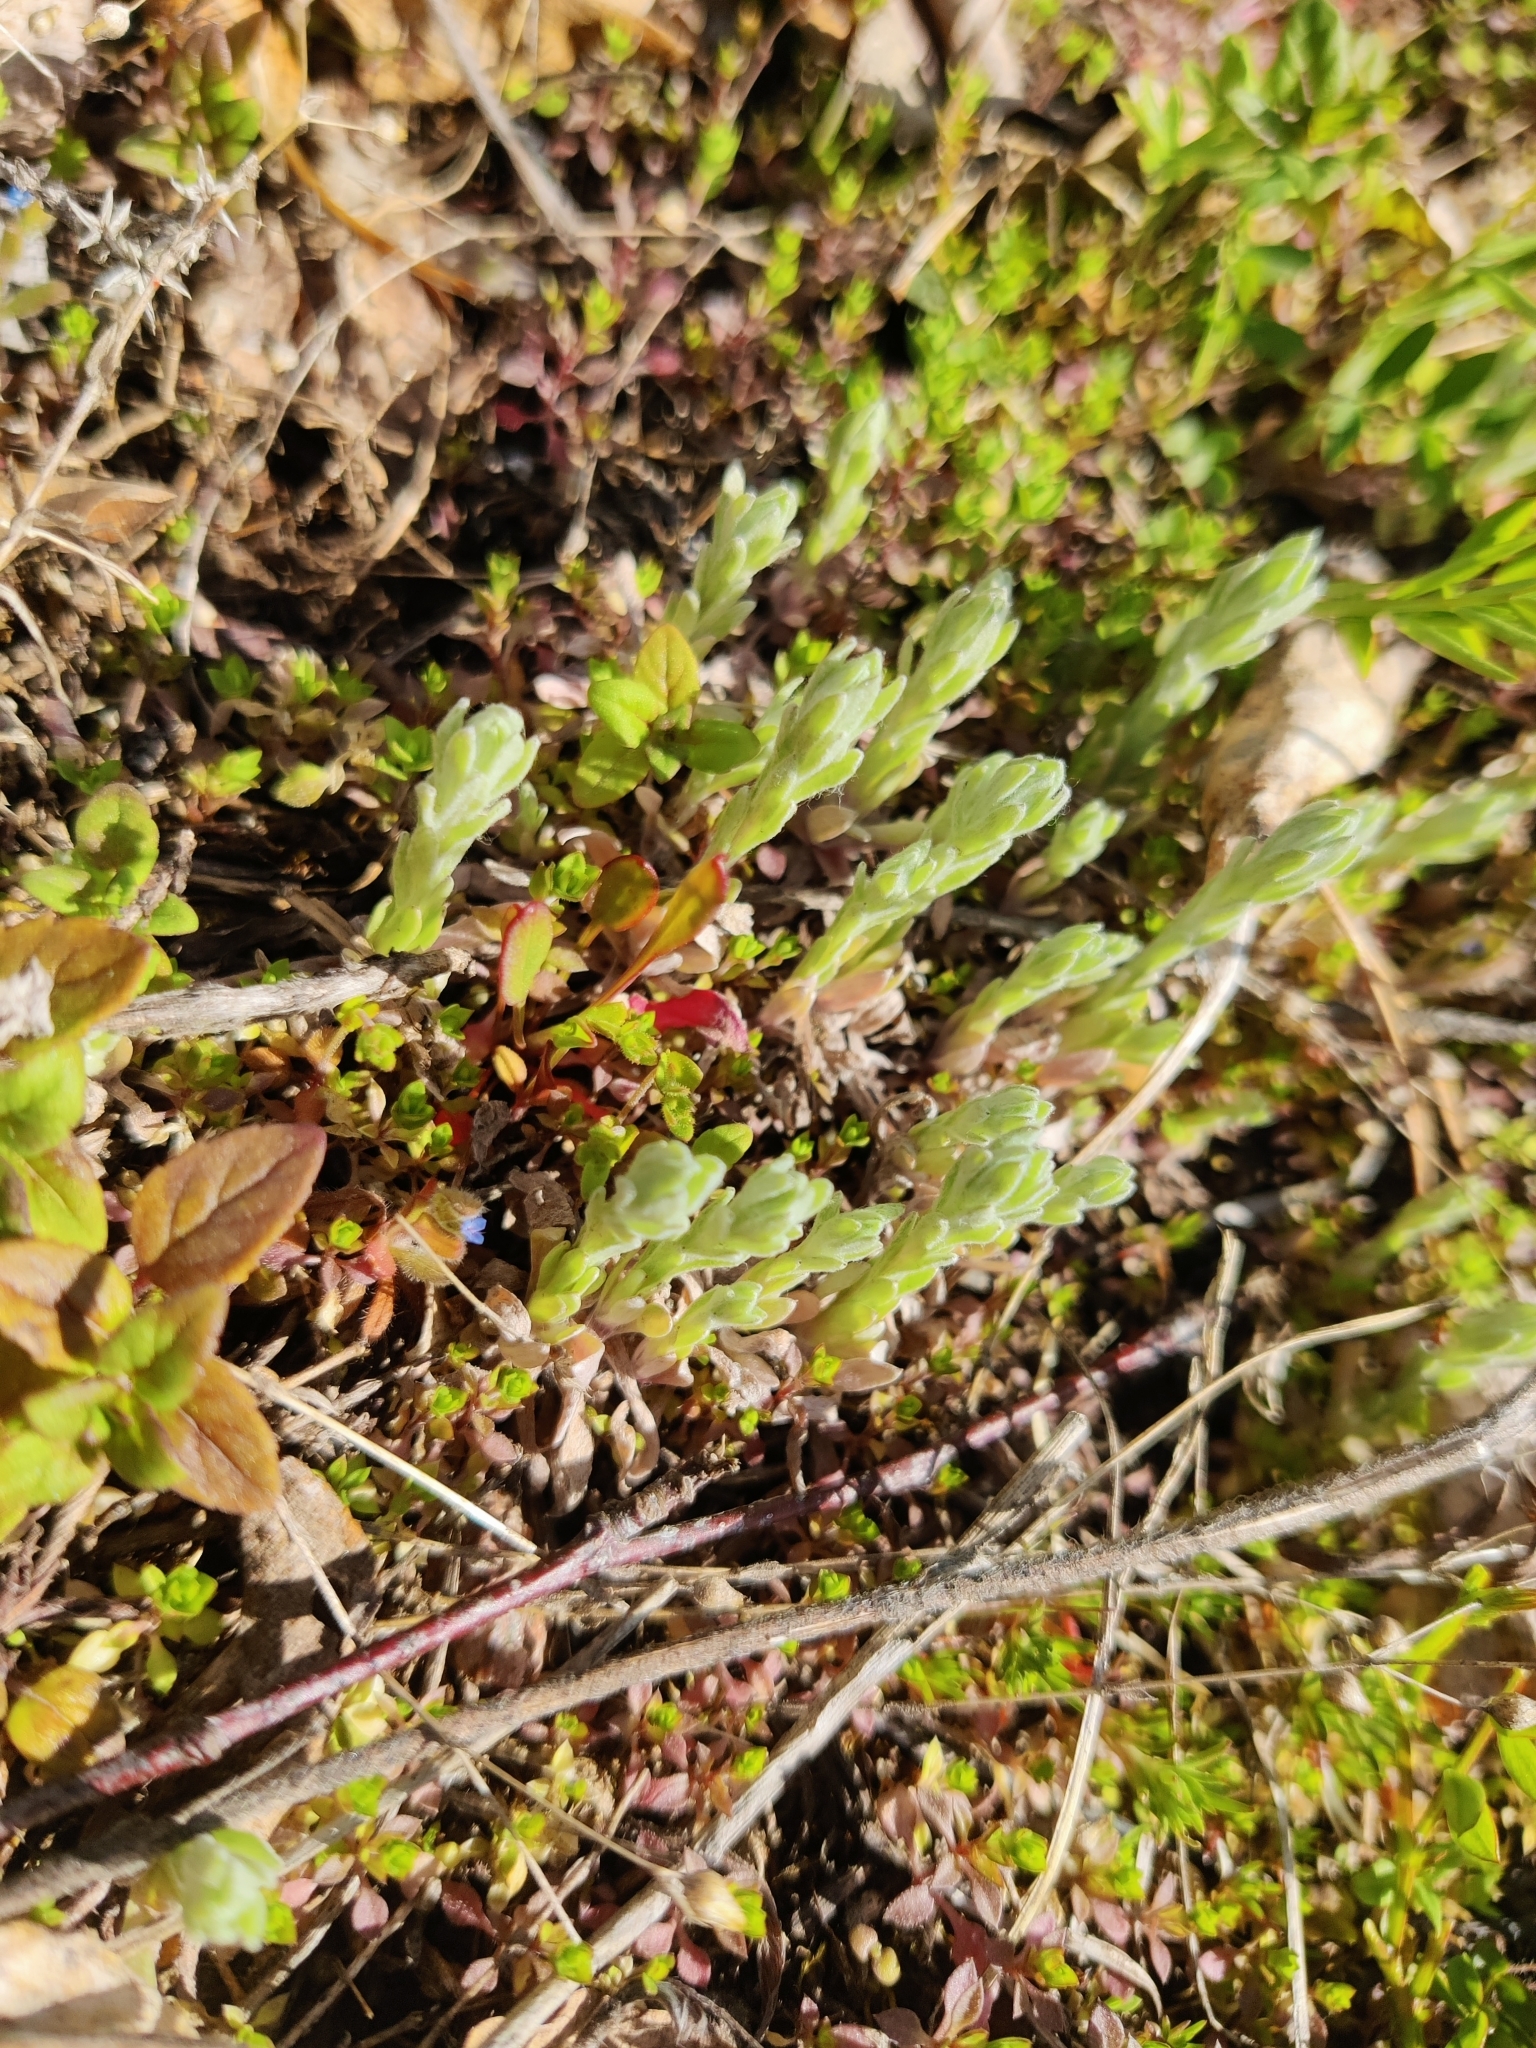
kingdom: Plantae
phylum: Tracheophyta
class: Magnoliopsida
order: Asterales
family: Asteraceae
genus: Filago
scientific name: Filago arvensis
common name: Field cudweed
